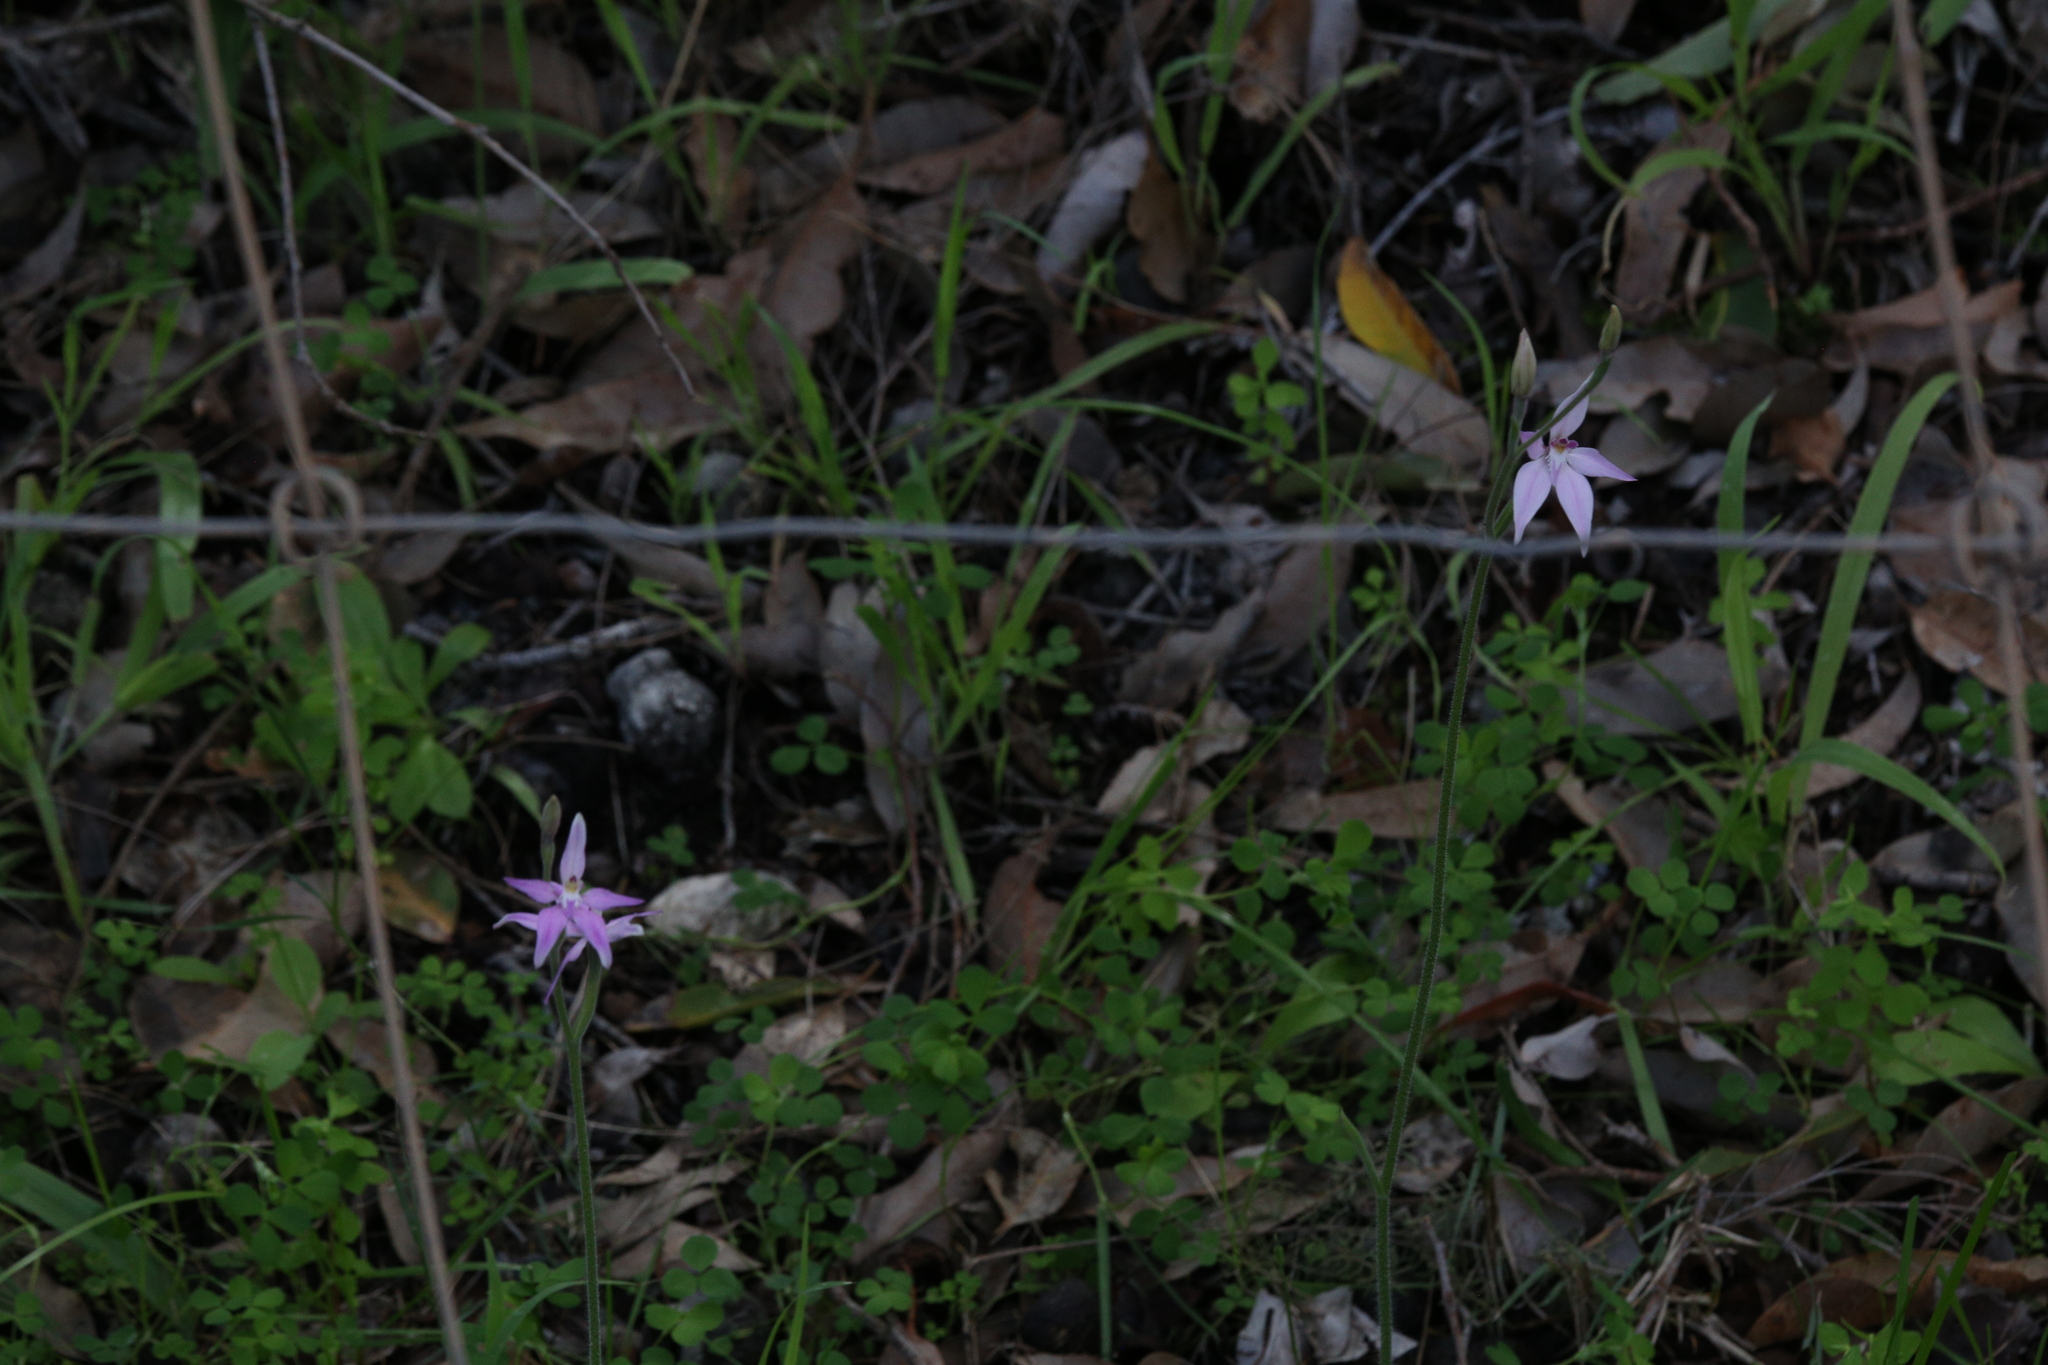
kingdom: Plantae
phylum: Tracheophyta
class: Liliopsida
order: Asparagales
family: Orchidaceae
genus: Caladenia
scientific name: Caladenia latifolia
